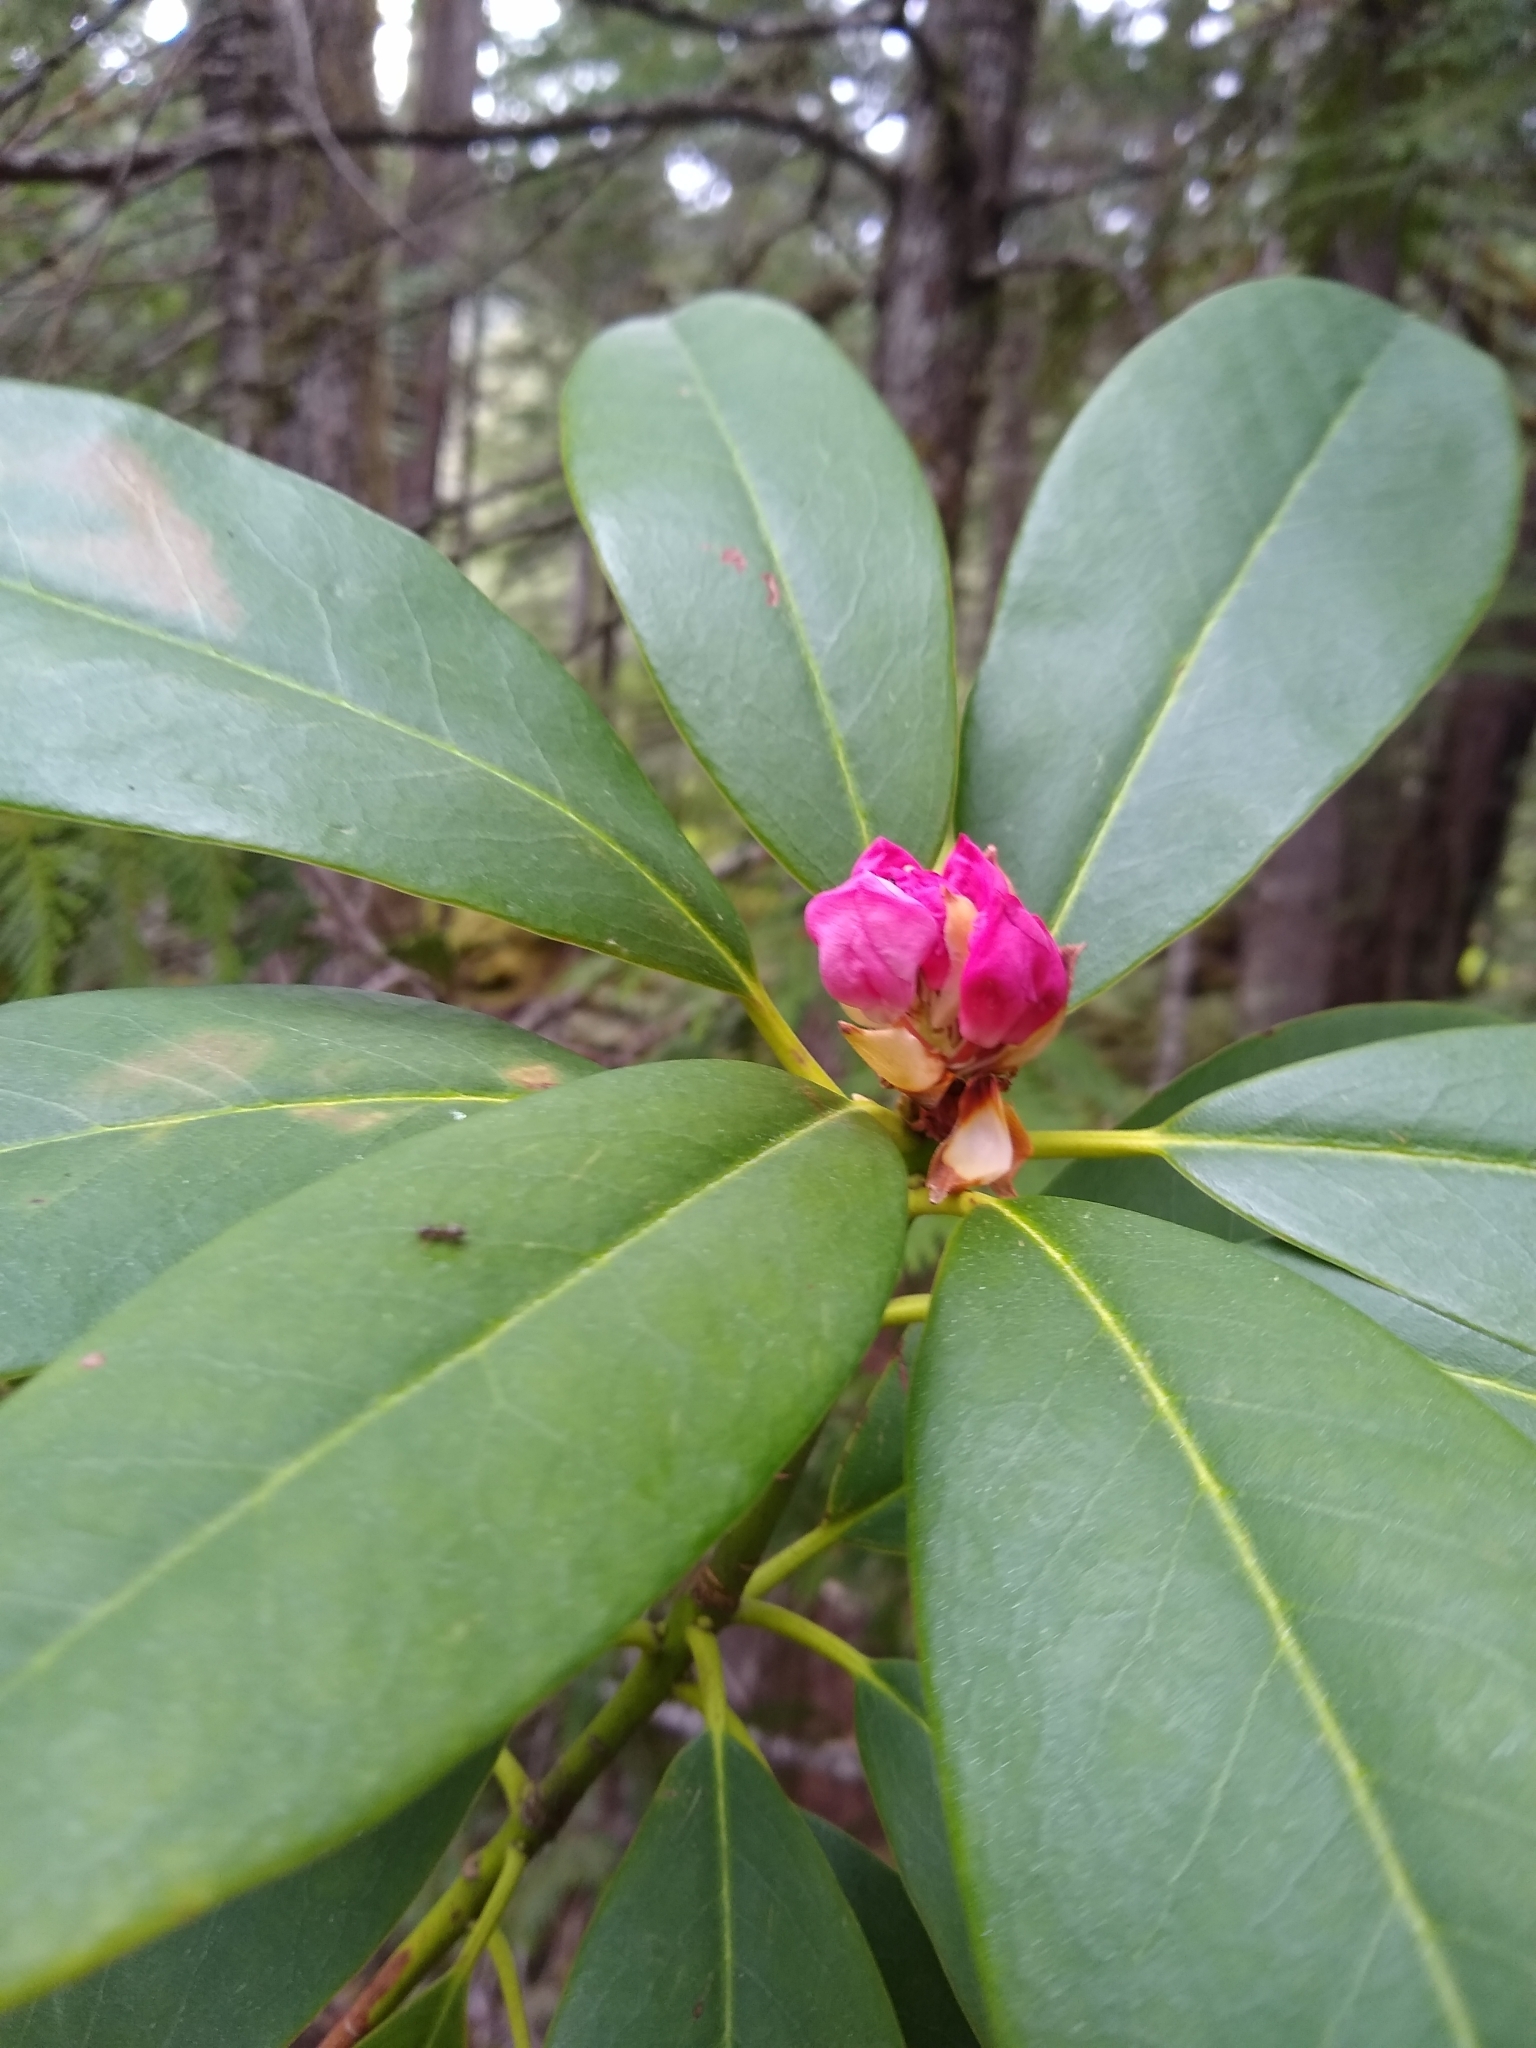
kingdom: Plantae
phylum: Tracheophyta
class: Magnoliopsida
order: Ericales
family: Ericaceae
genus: Rhododendron
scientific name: Rhododendron macrophyllum
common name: California rose bay
